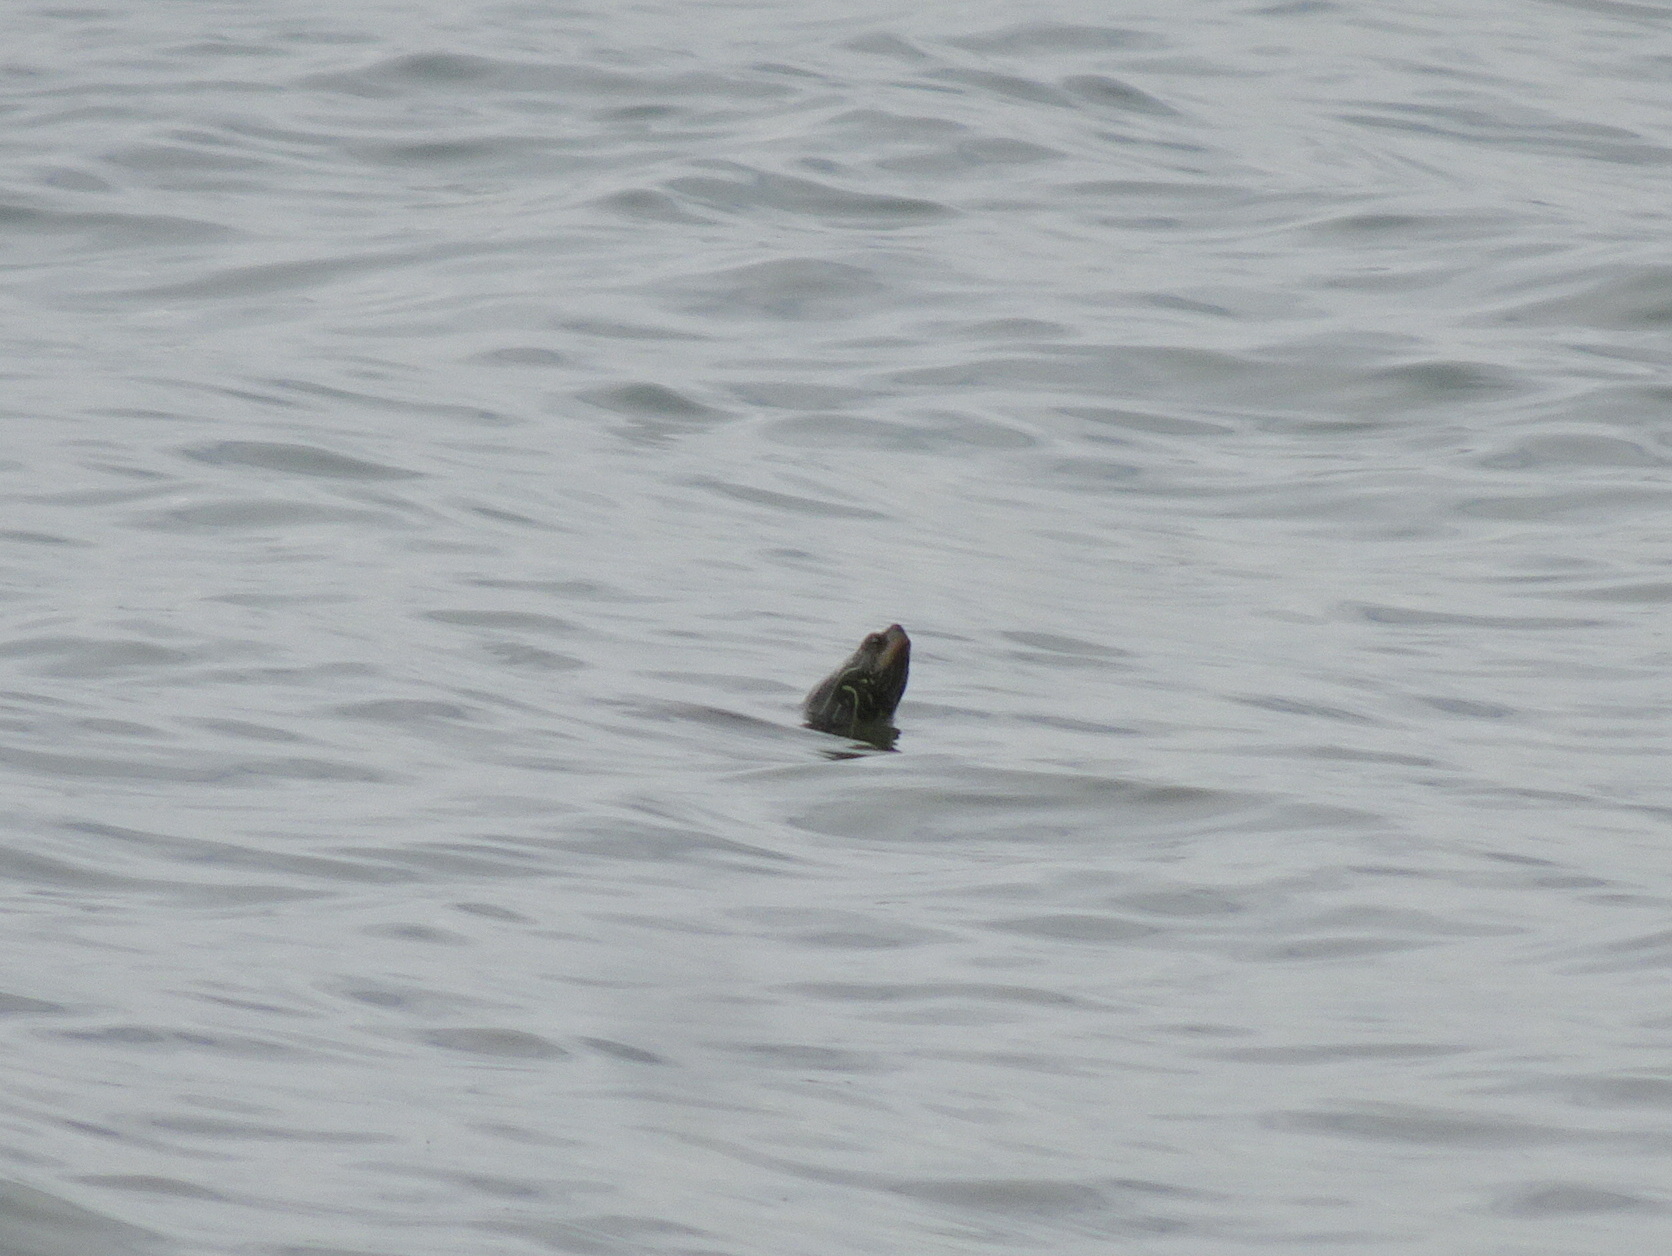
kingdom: Animalia
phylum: Chordata
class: Testudines
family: Emydidae
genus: Graptemys
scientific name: Graptemys geographica
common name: Common map turtle
